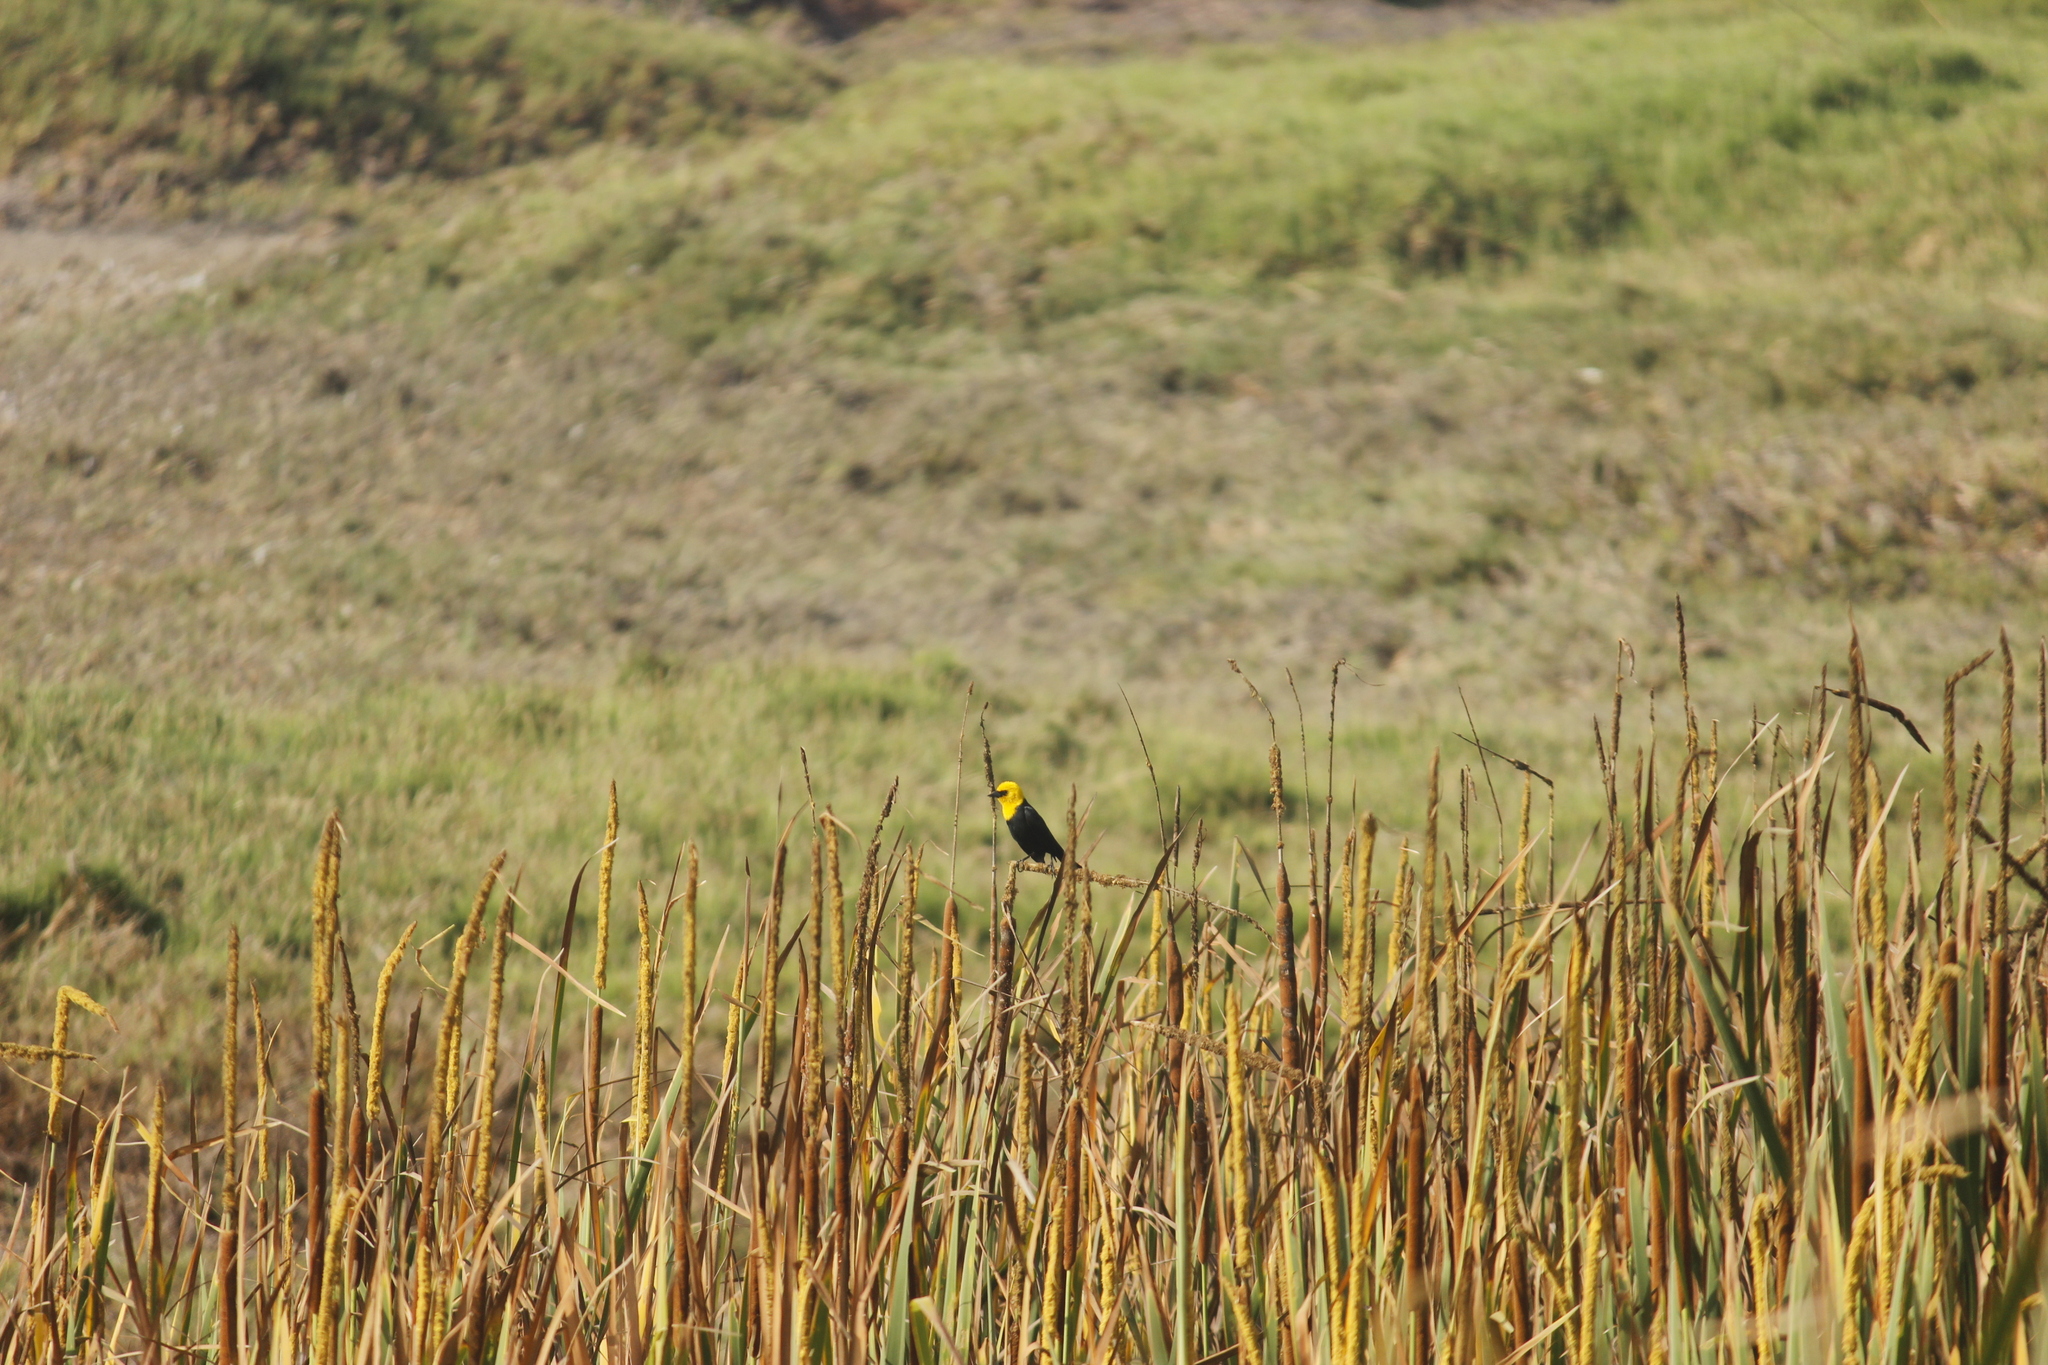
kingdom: Animalia
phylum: Chordata
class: Aves
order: Passeriformes
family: Icteridae
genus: Chrysomus
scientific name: Chrysomus icterocephalus
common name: Yellow-hooded blackbird
